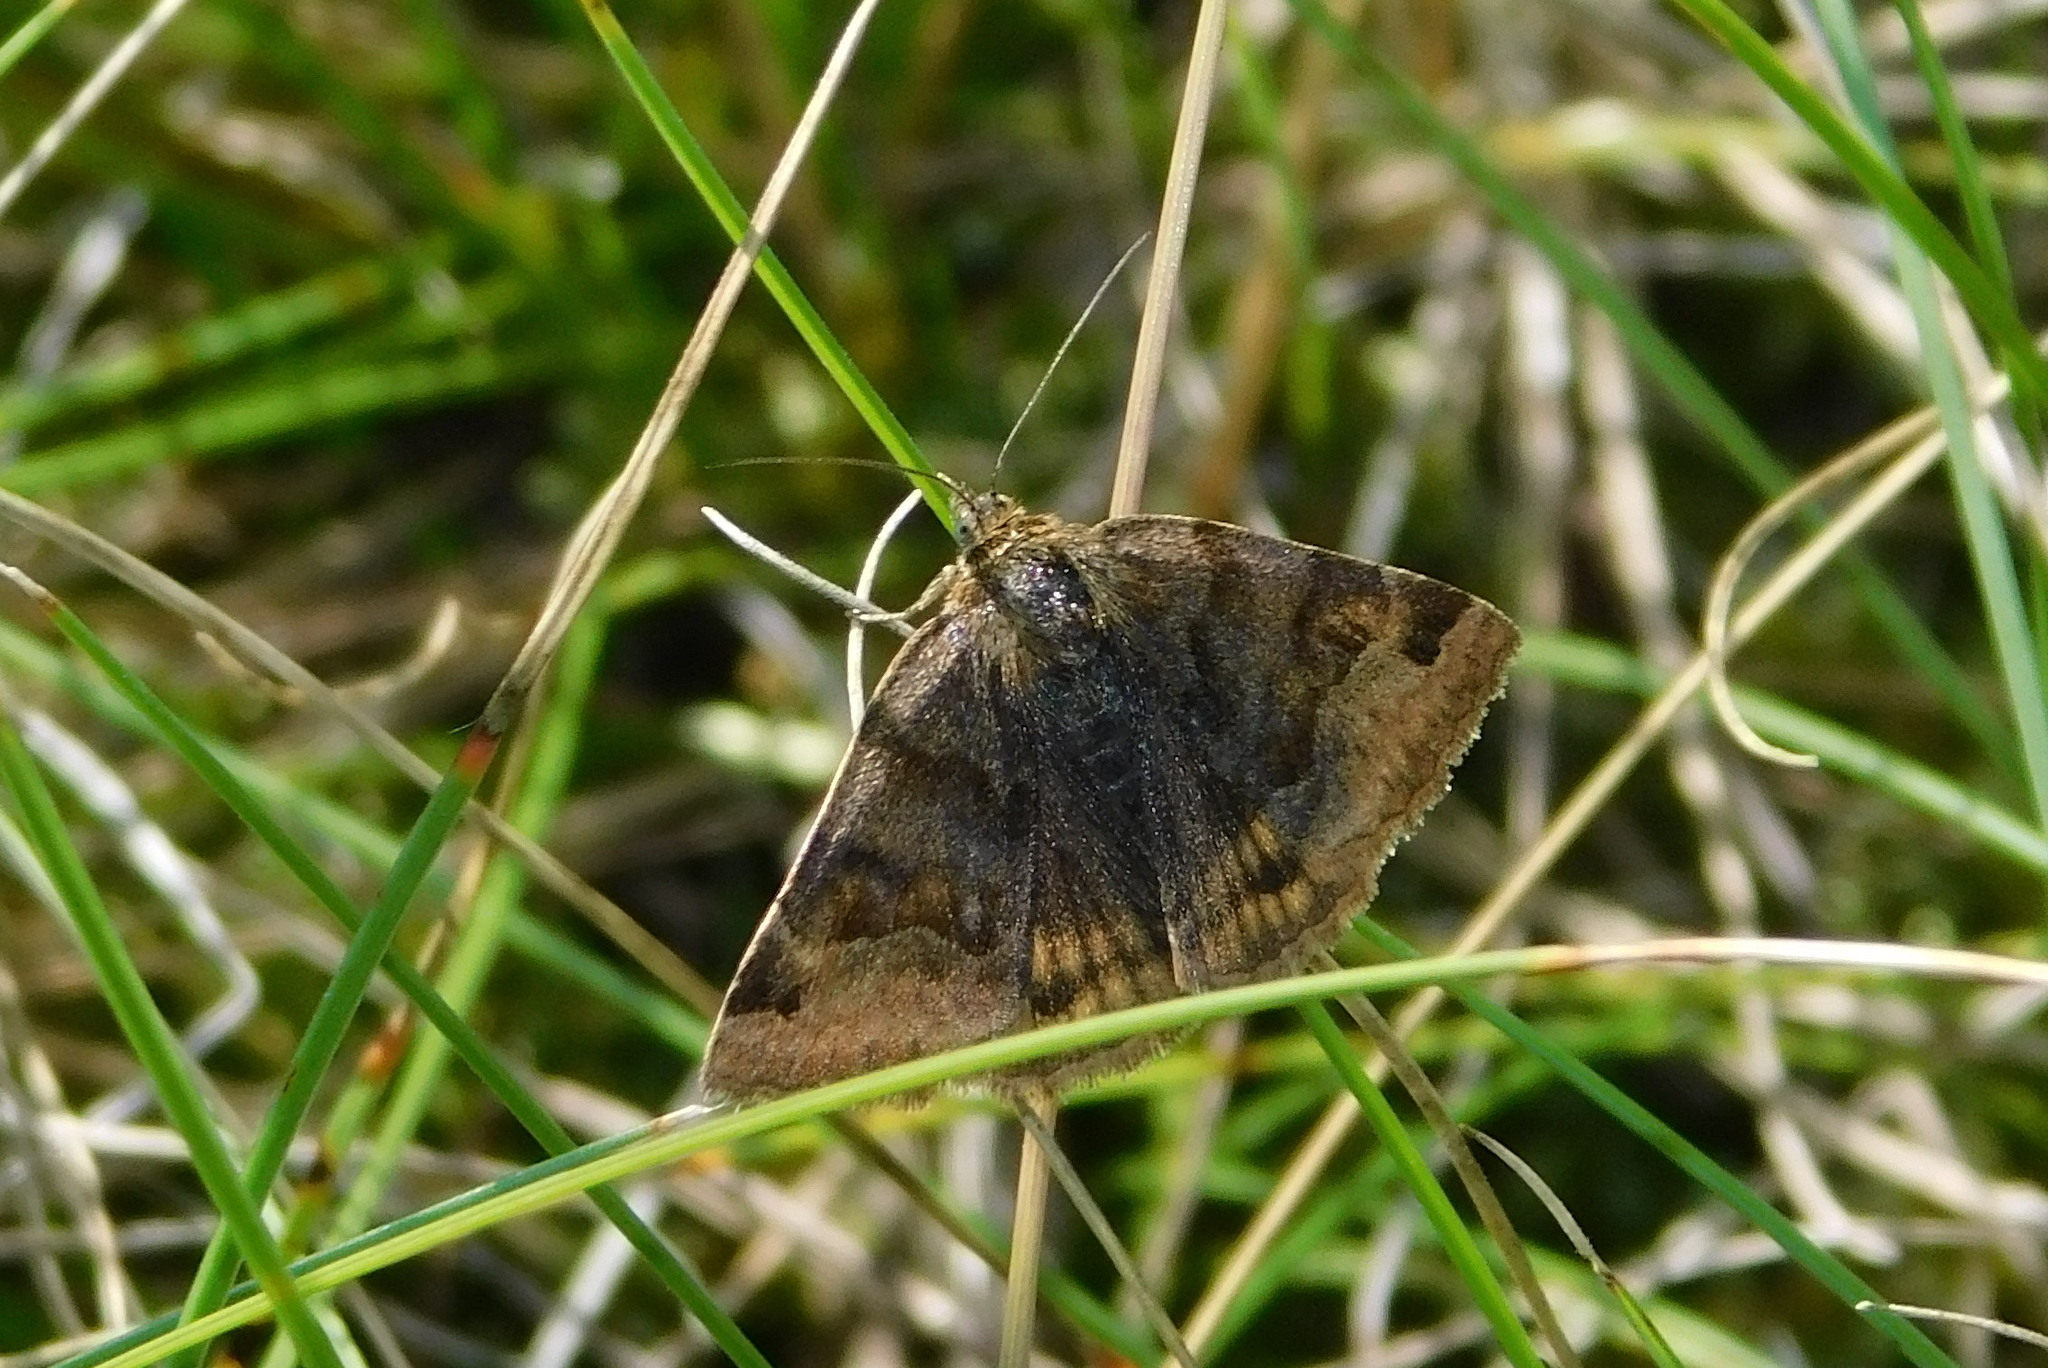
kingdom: Animalia
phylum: Arthropoda
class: Insecta
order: Lepidoptera
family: Erebidae
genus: Euclidia
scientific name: Euclidia glyphica
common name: Burnet companion
